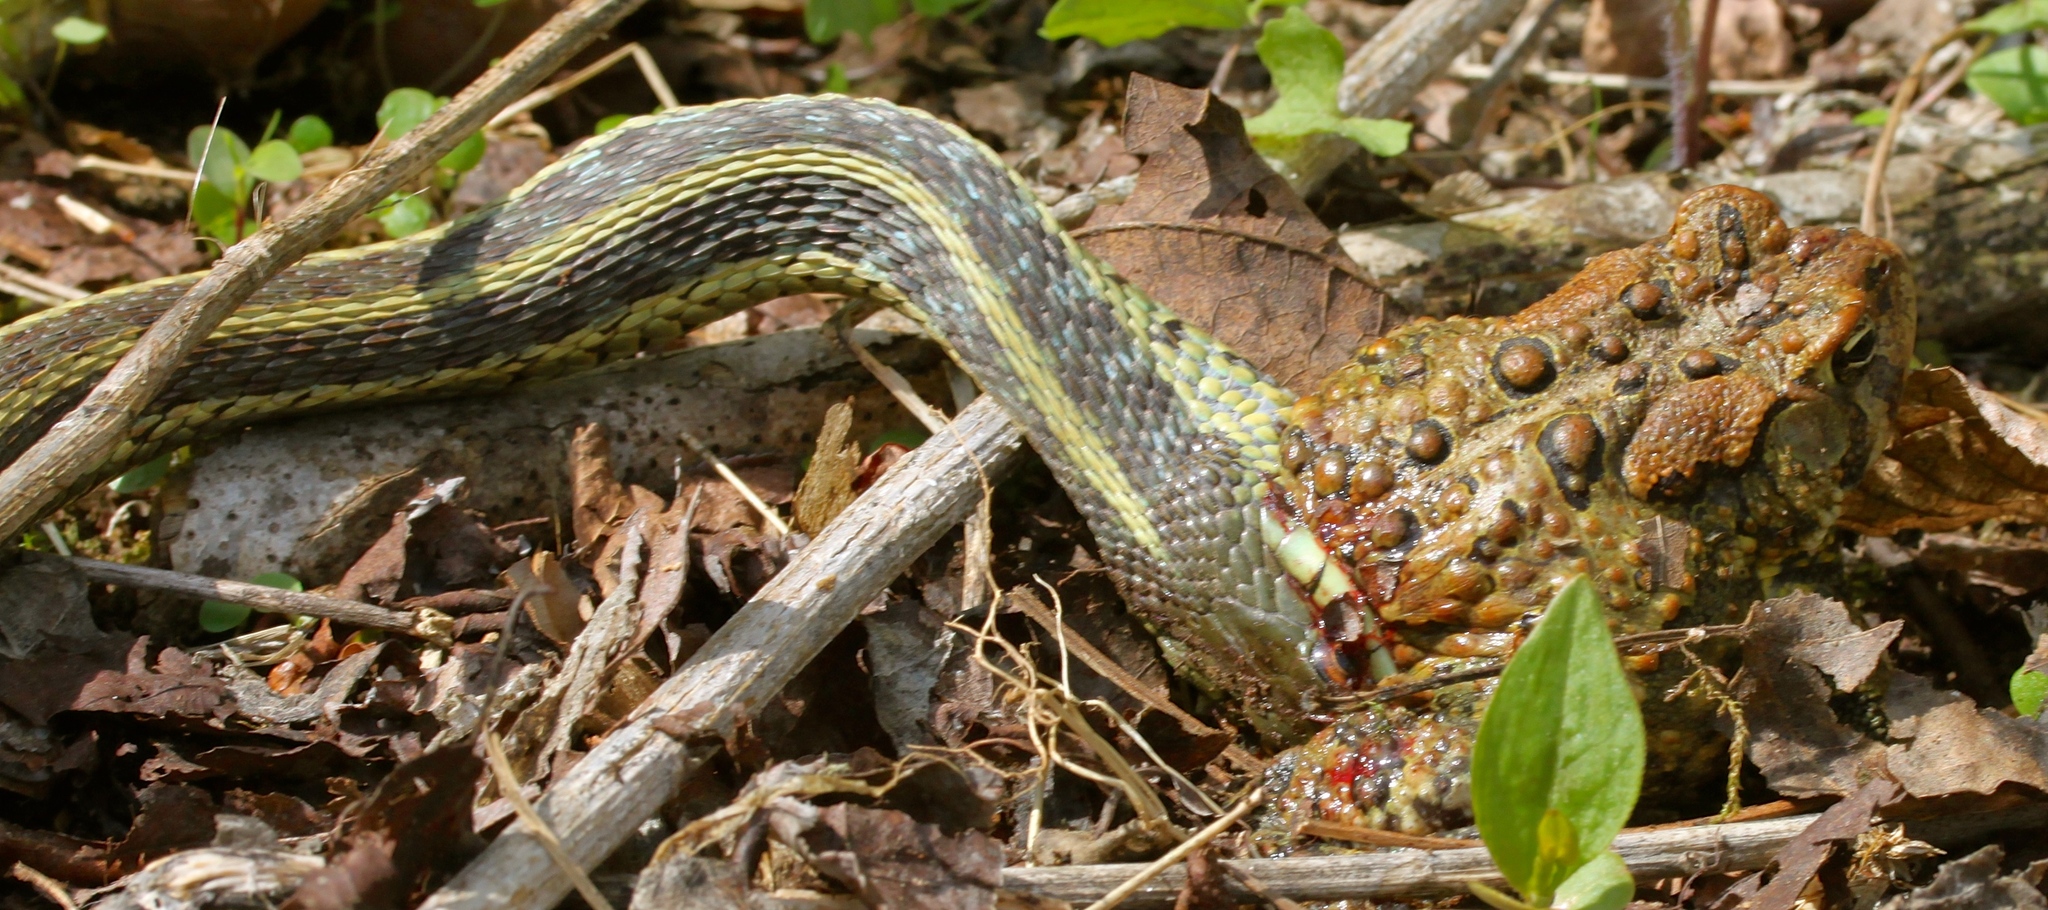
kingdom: Animalia
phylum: Chordata
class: Amphibia
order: Anura
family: Bufonidae
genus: Anaxyrus
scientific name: Anaxyrus americanus
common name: American toad
